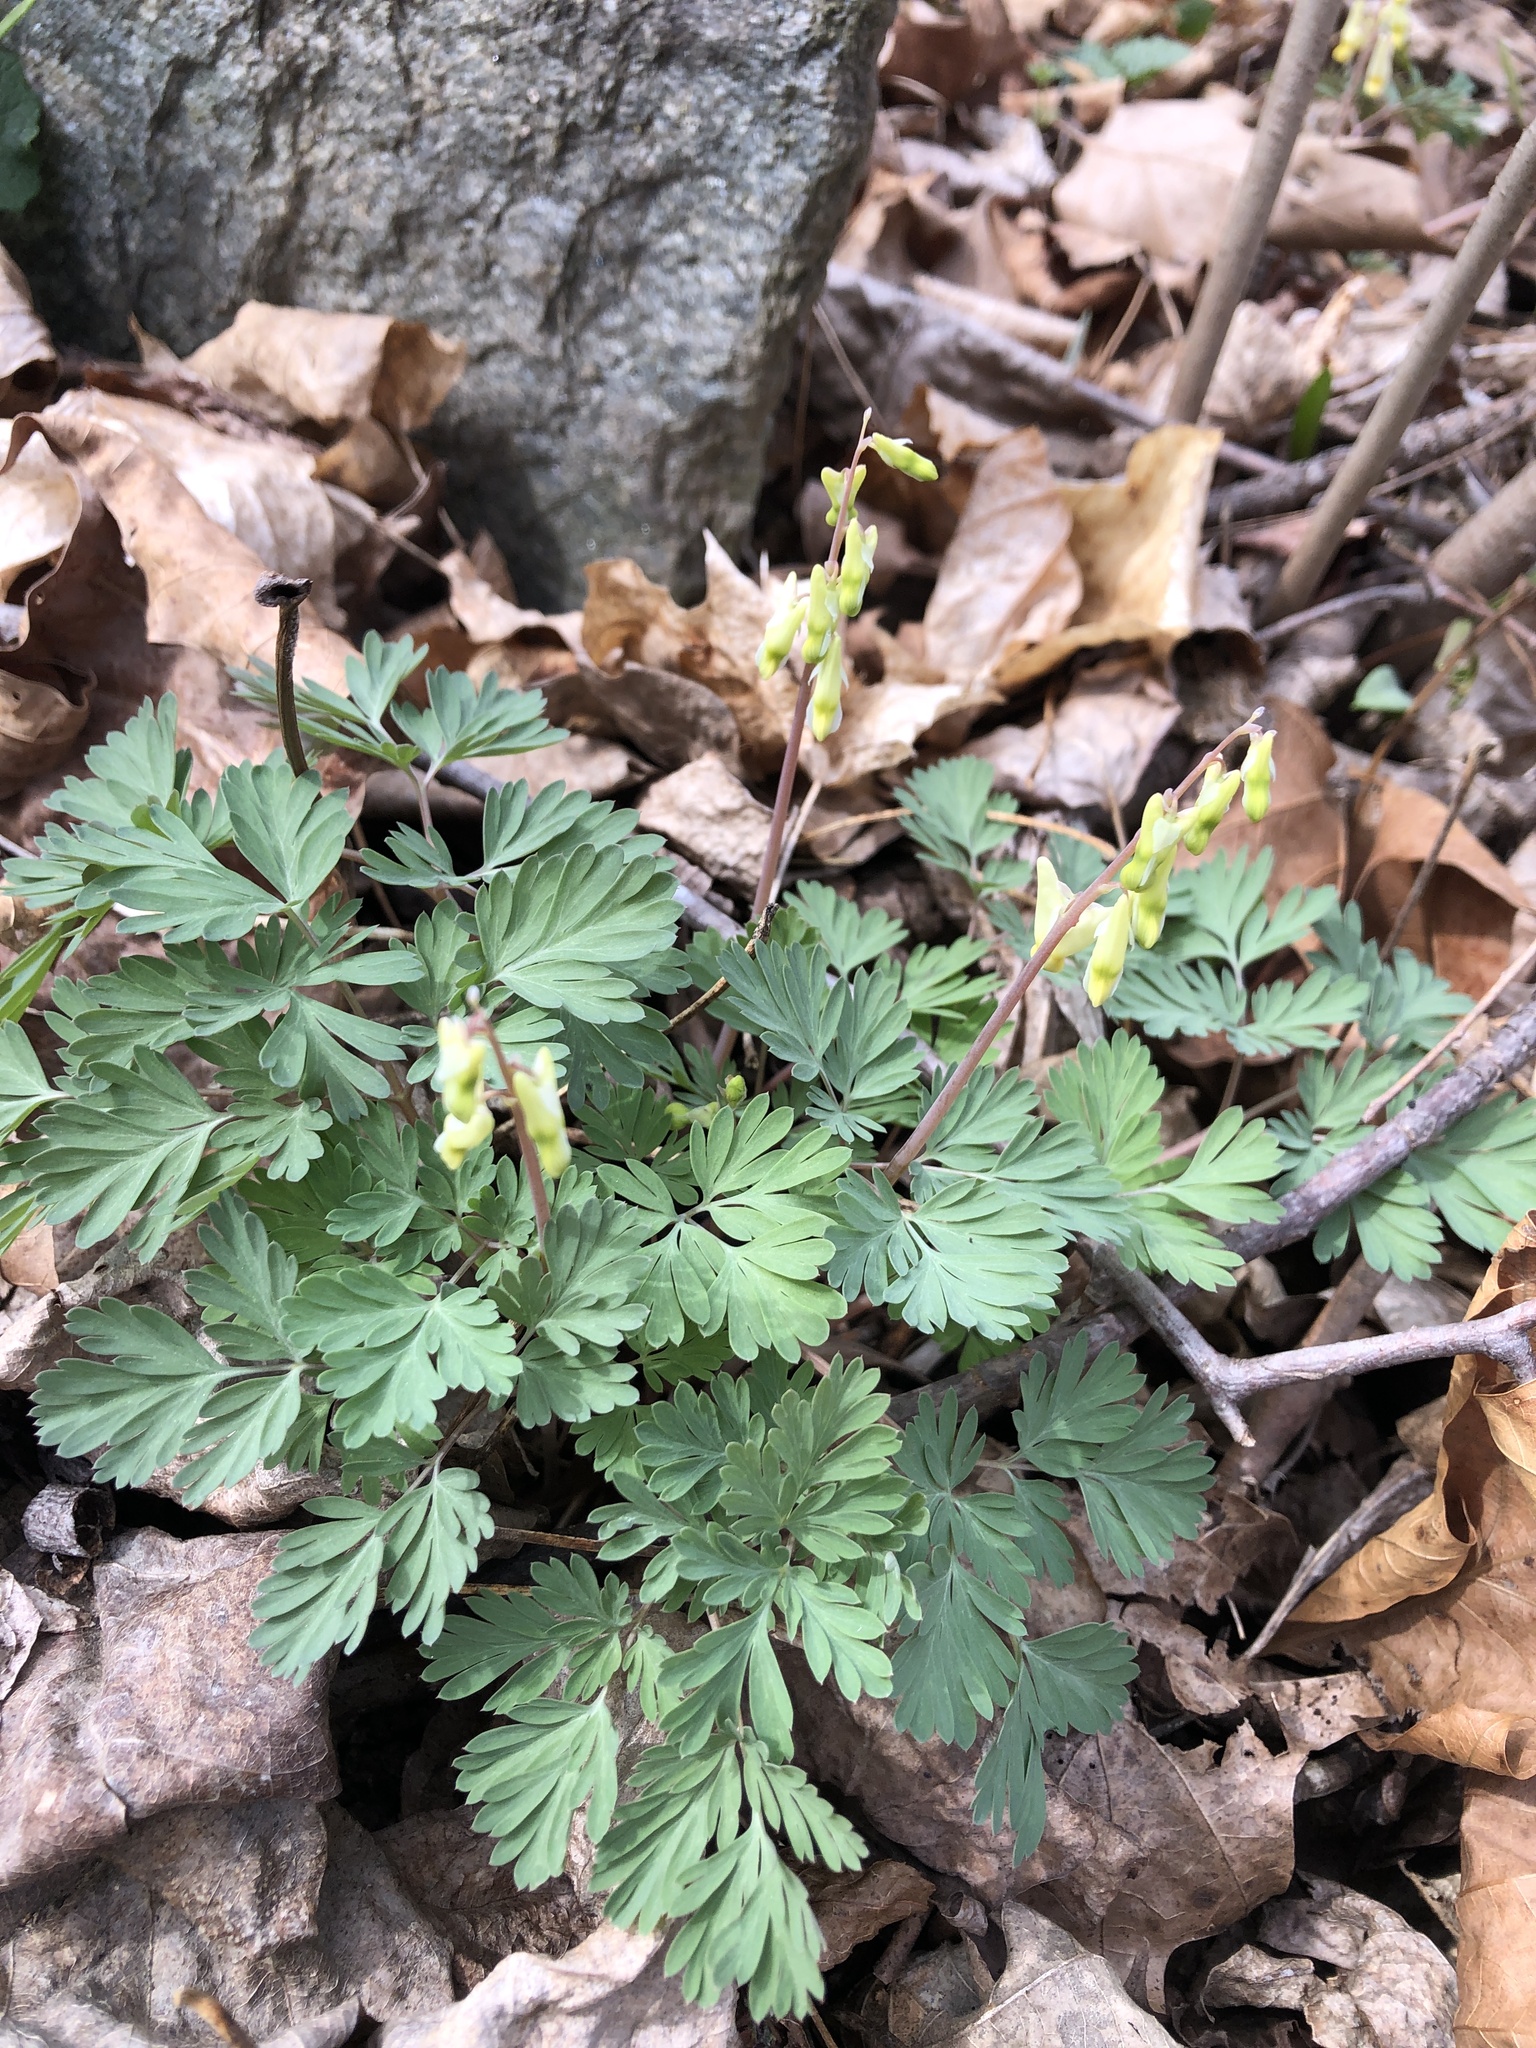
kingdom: Plantae
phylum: Tracheophyta
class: Magnoliopsida
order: Ranunculales
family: Papaveraceae
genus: Dicentra
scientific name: Dicentra cucullaria
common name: Dutchman's breeches
